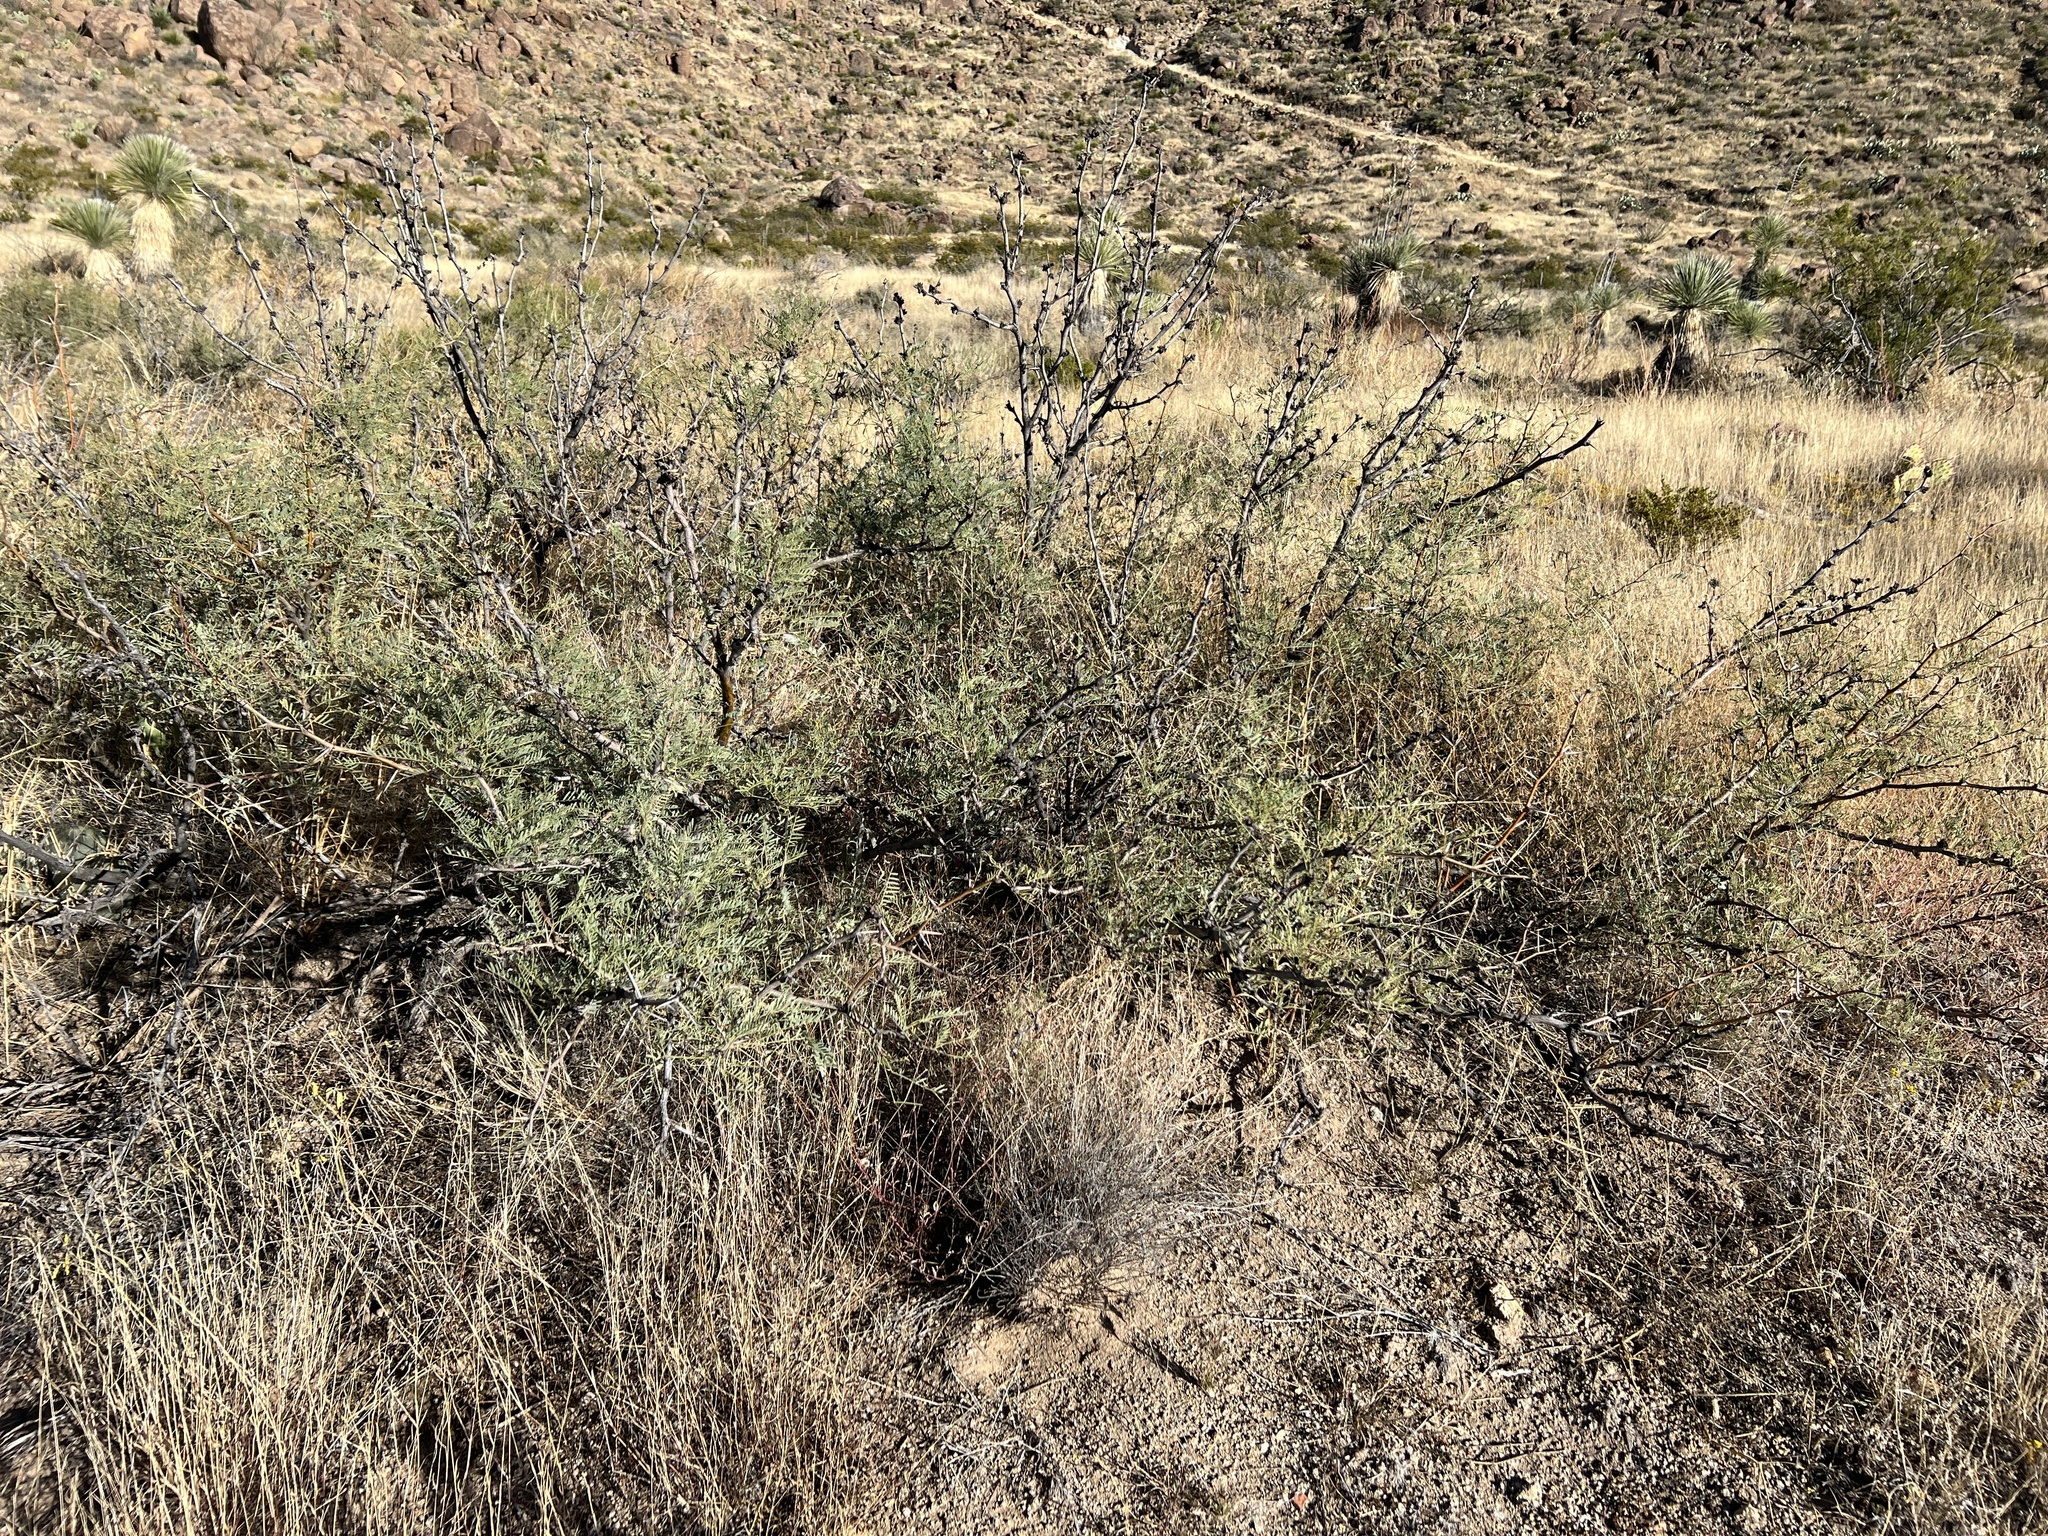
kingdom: Plantae
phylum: Tracheophyta
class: Magnoliopsida
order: Fabales
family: Fabaceae
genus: Prosopis
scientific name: Prosopis pubescens
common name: Screw-bean
